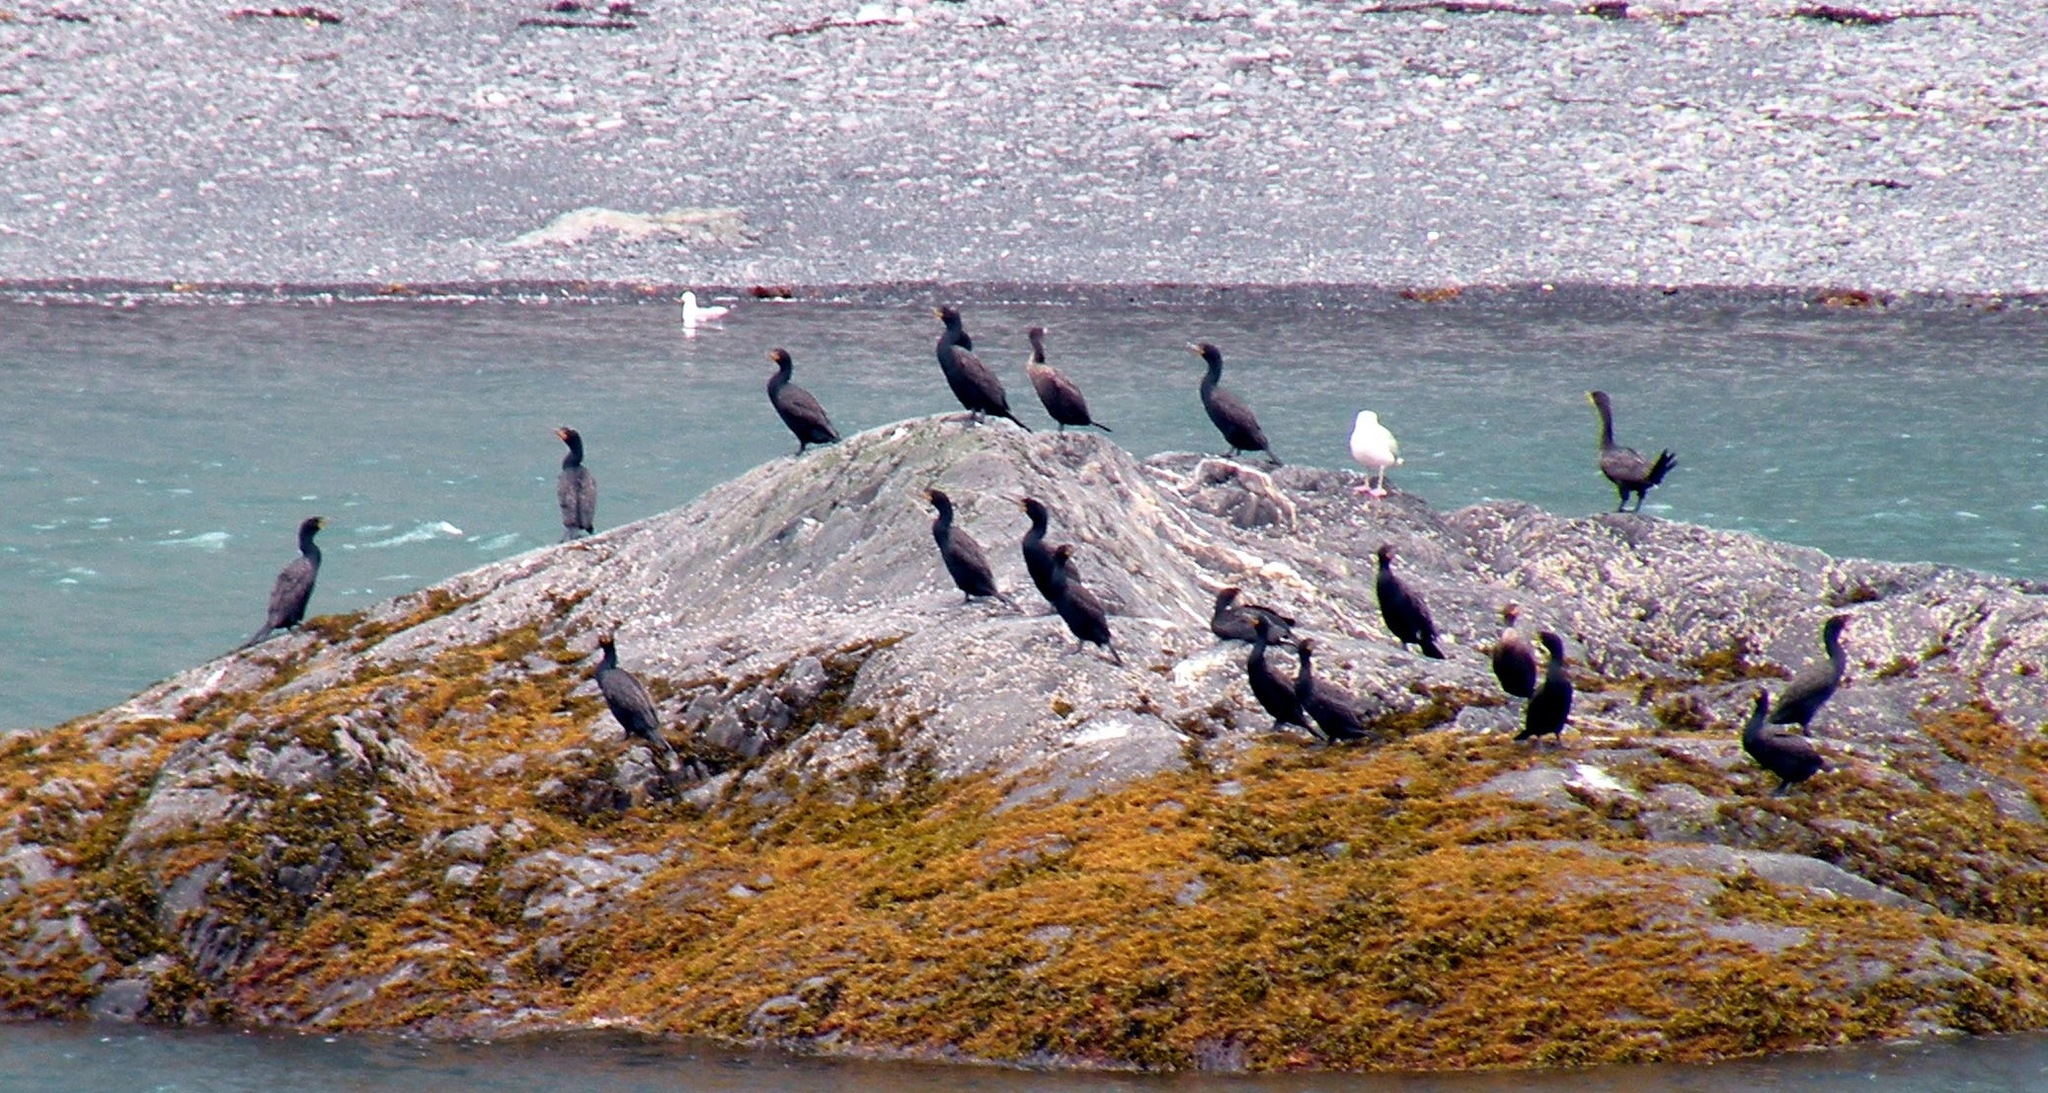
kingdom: Animalia
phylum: Chordata
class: Aves
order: Suliformes
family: Phalacrocoracidae
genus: Phalacrocorax
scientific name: Phalacrocorax auritus
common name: Double-crested cormorant
